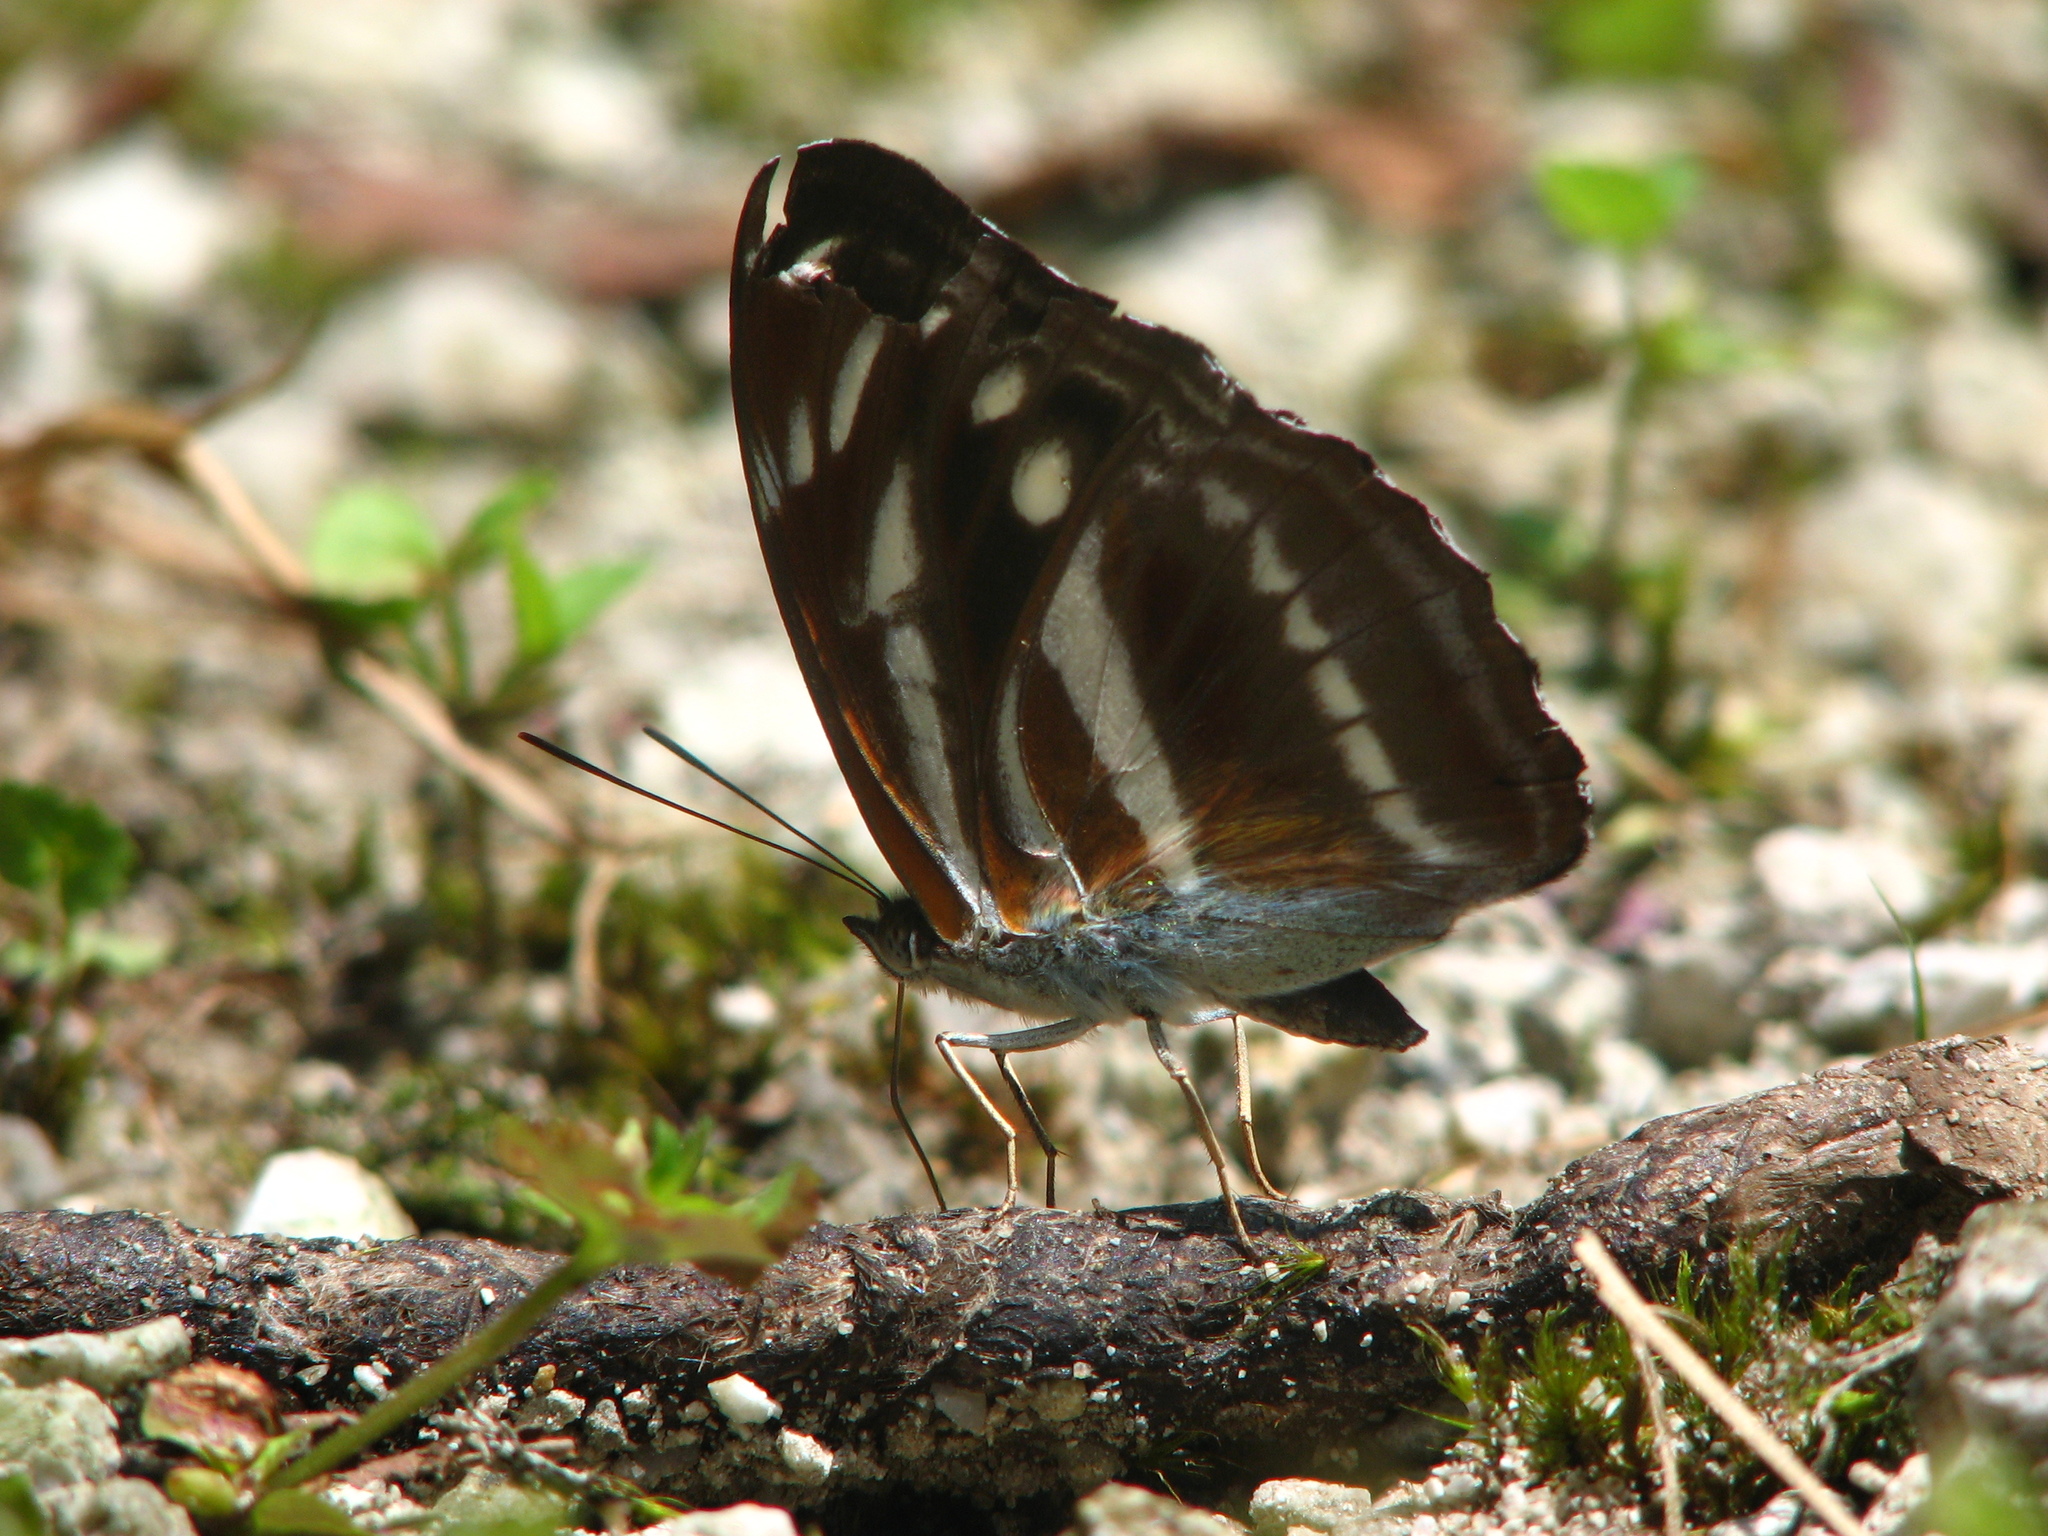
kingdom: Animalia
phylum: Arthropoda
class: Insecta
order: Lepidoptera
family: Nymphalidae
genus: Parathyma
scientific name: Parathyma opalina
